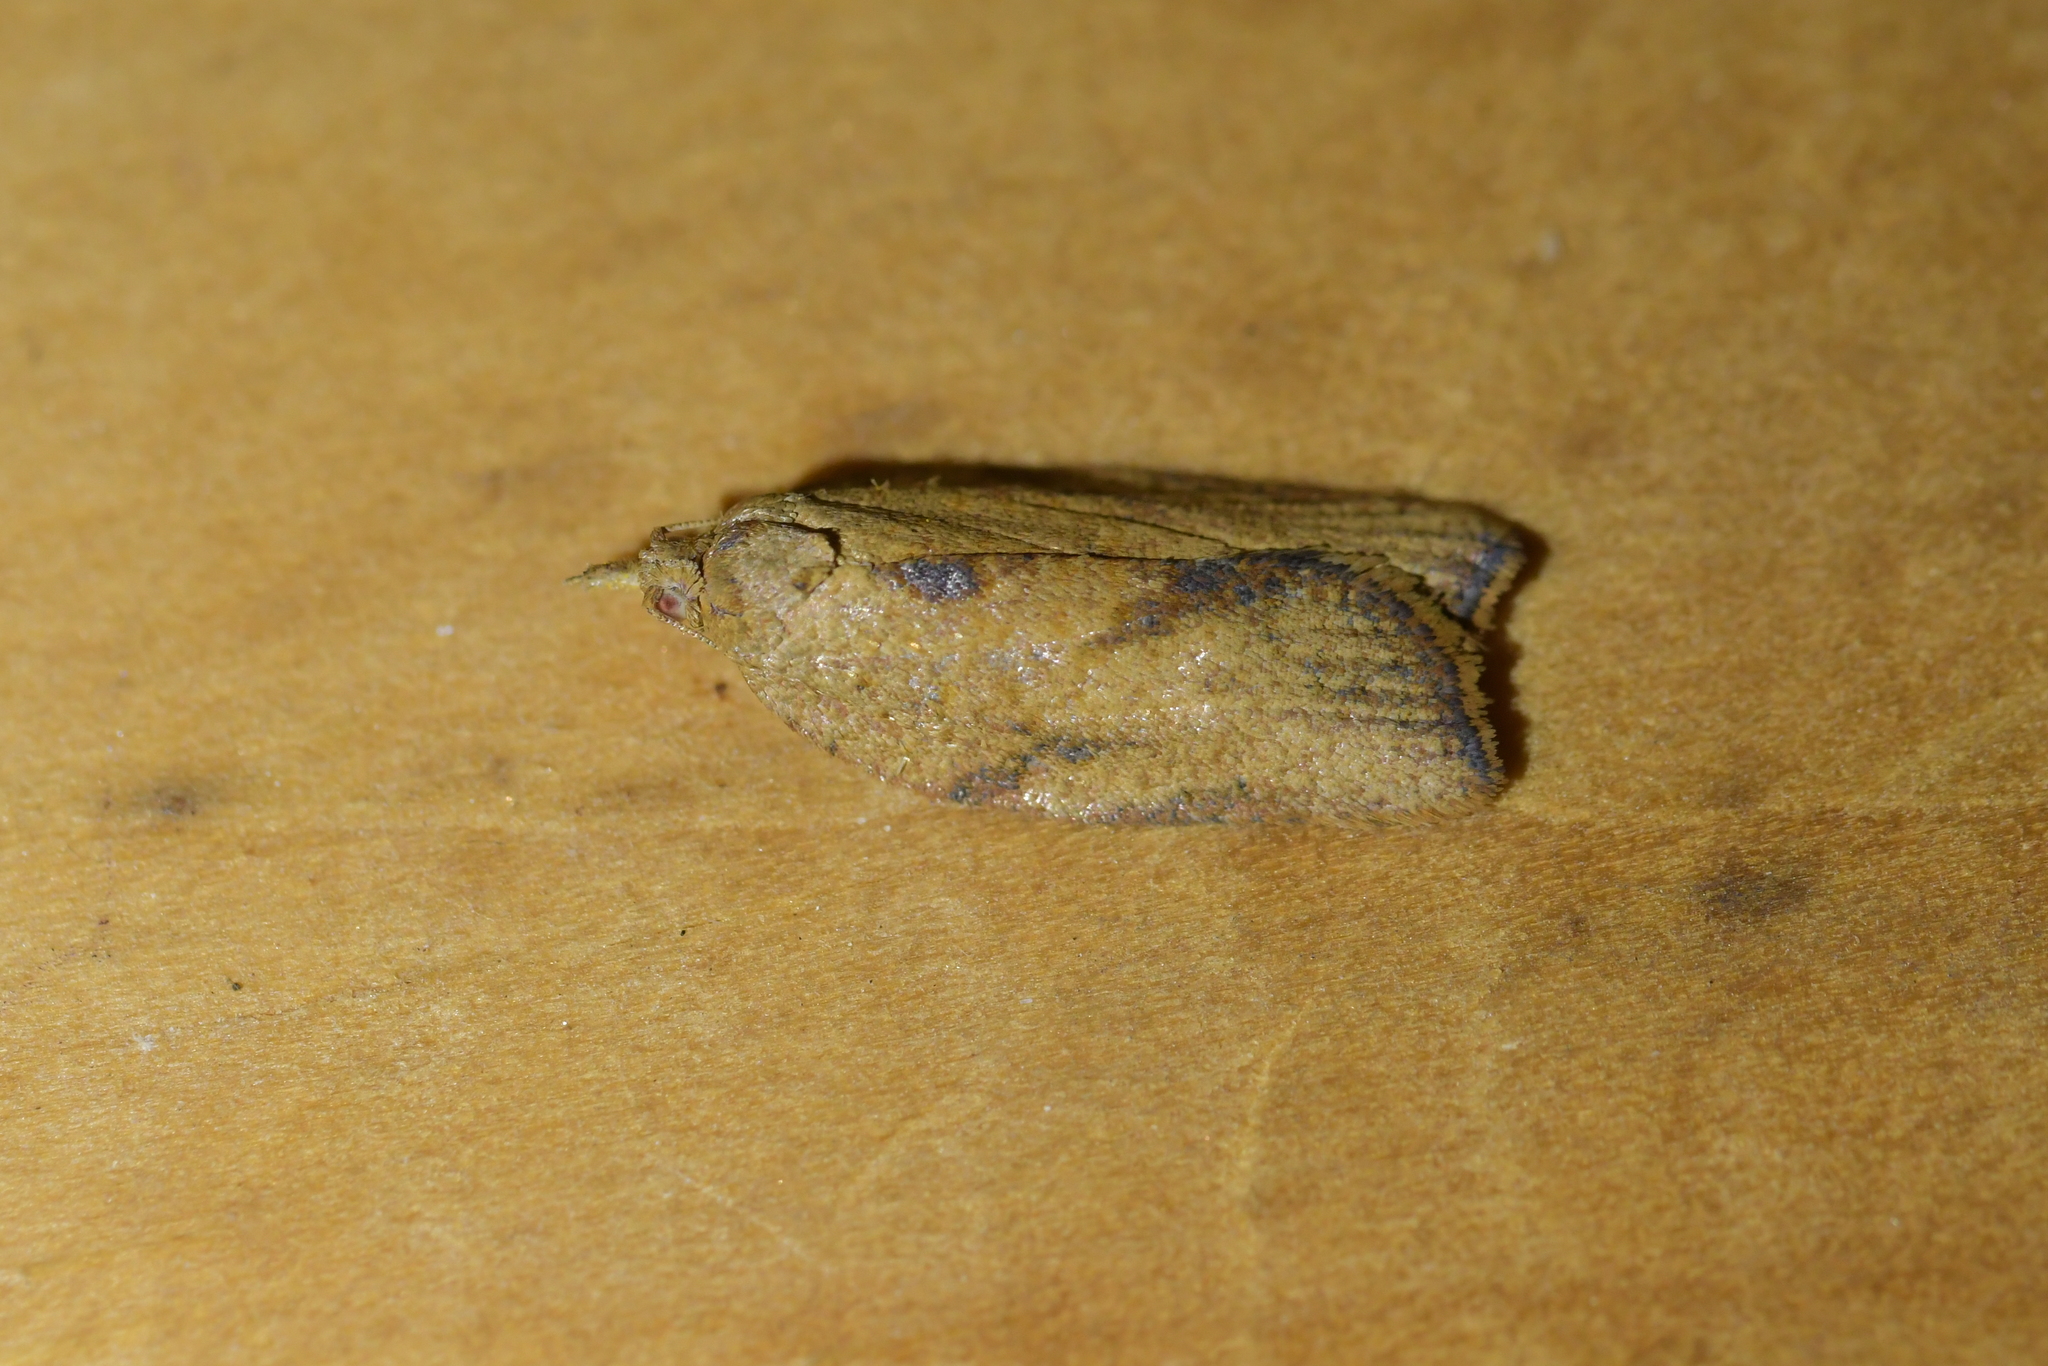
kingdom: Animalia
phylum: Arthropoda
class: Insecta
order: Lepidoptera
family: Tortricidae
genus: Epiphyas
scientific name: Epiphyas postvittana
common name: Light brown apple moth
